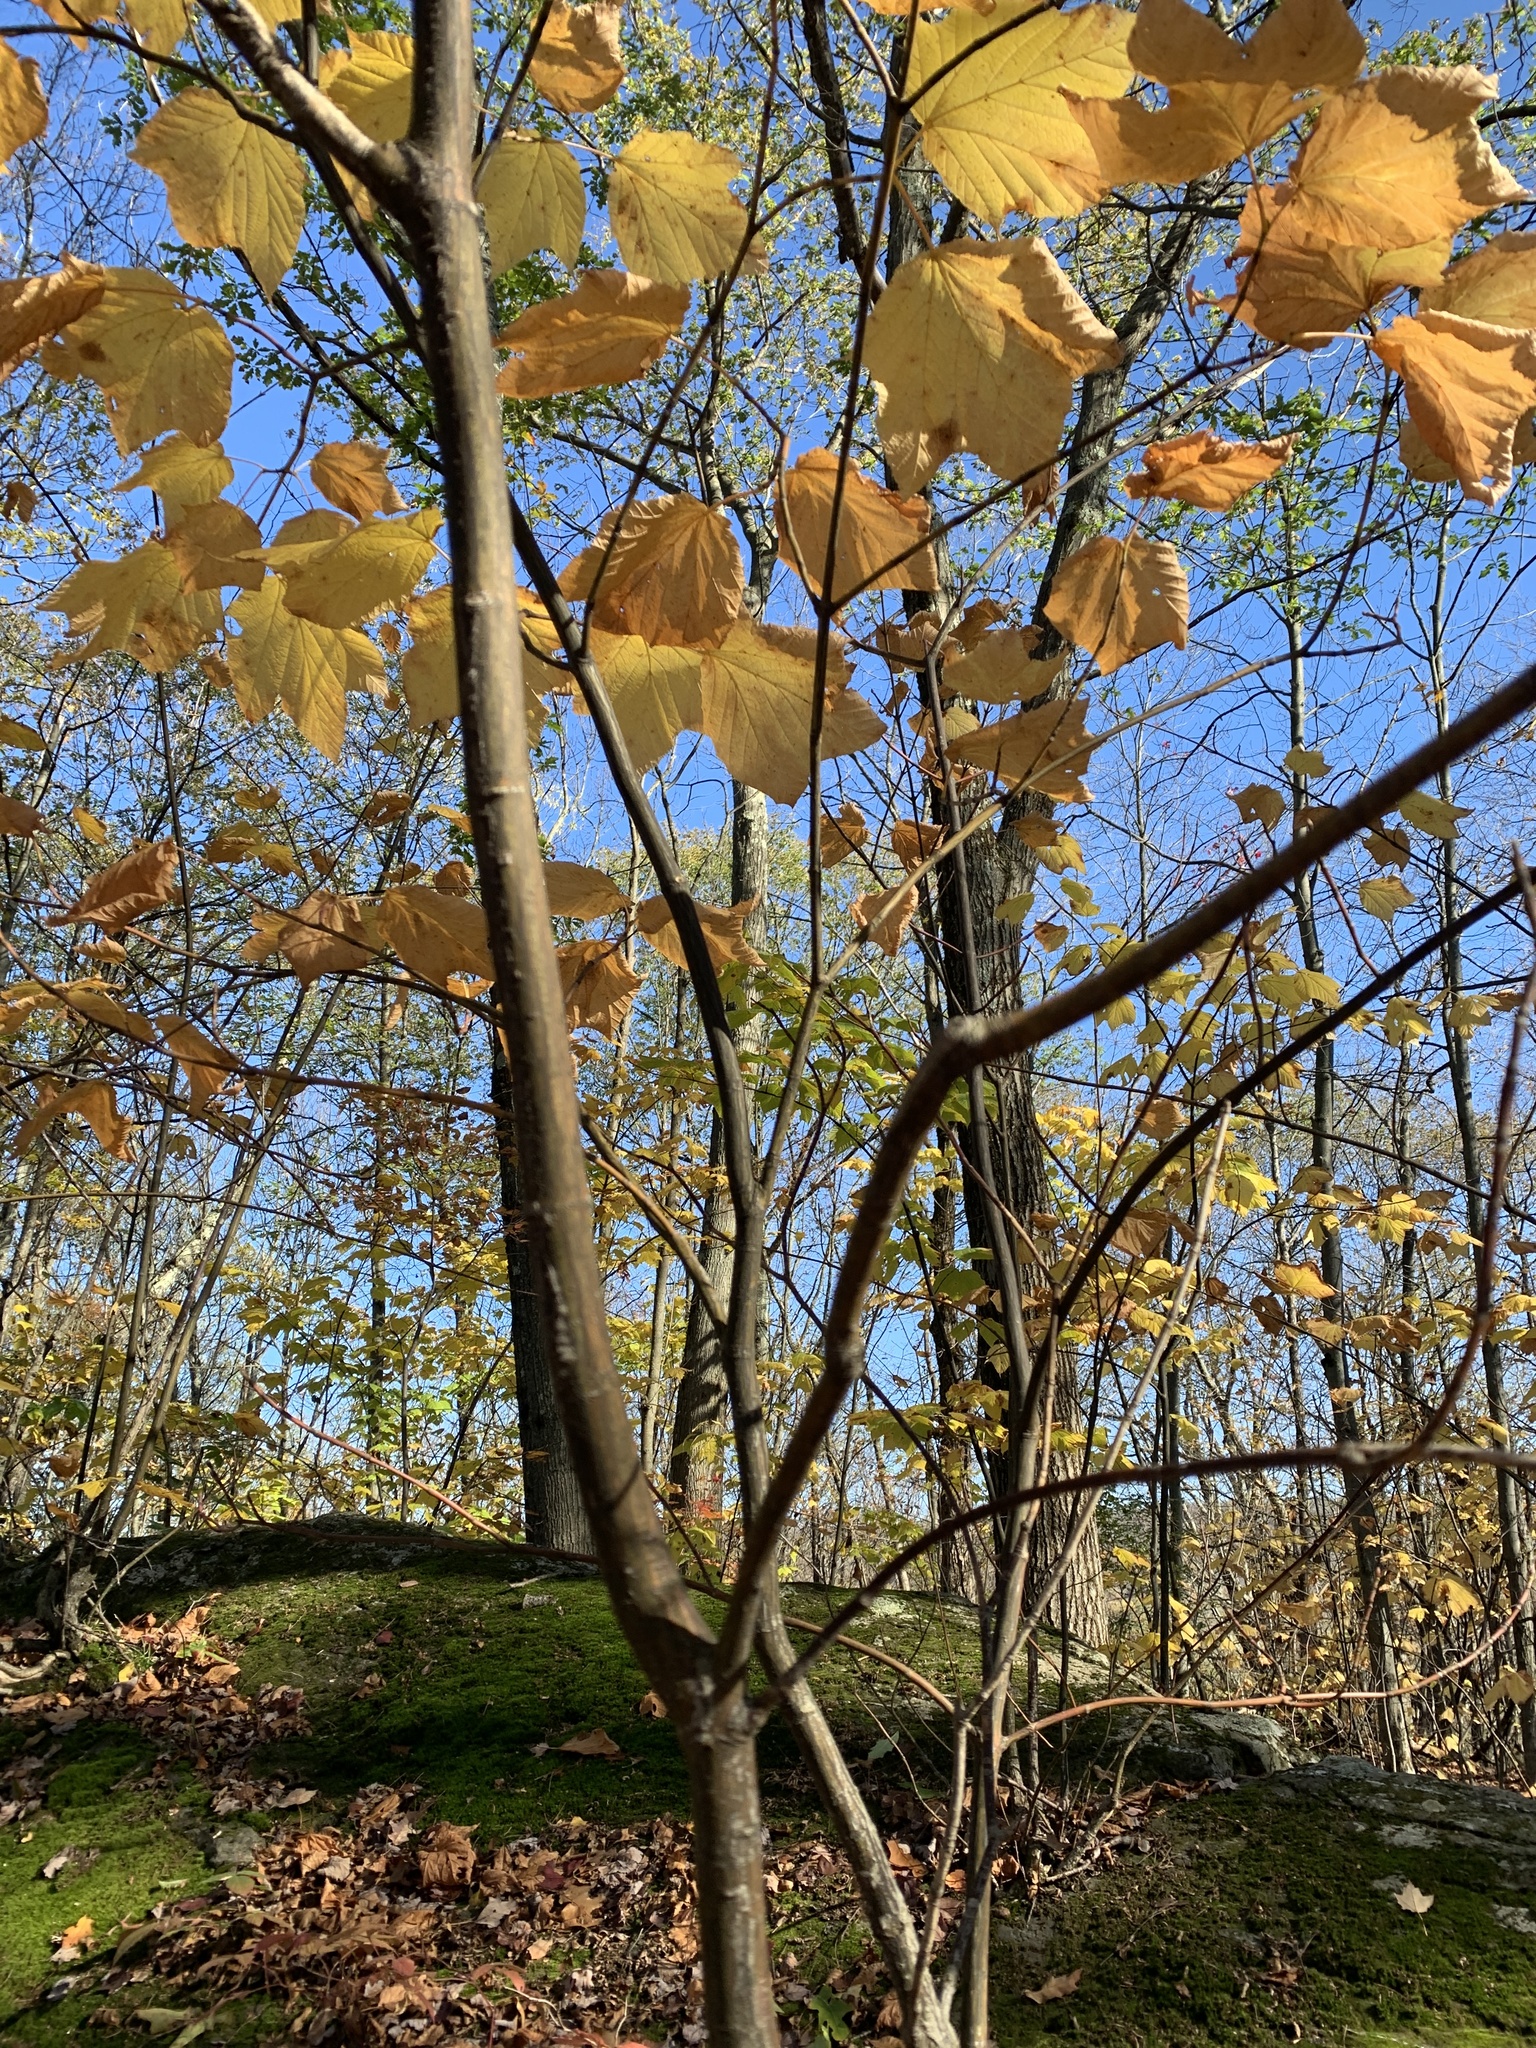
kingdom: Plantae
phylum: Tracheophyta
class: Magnoliopsida
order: Sapindales
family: Sapindaceae
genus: Acer
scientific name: Acer pensylvanicum
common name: Moosewood
